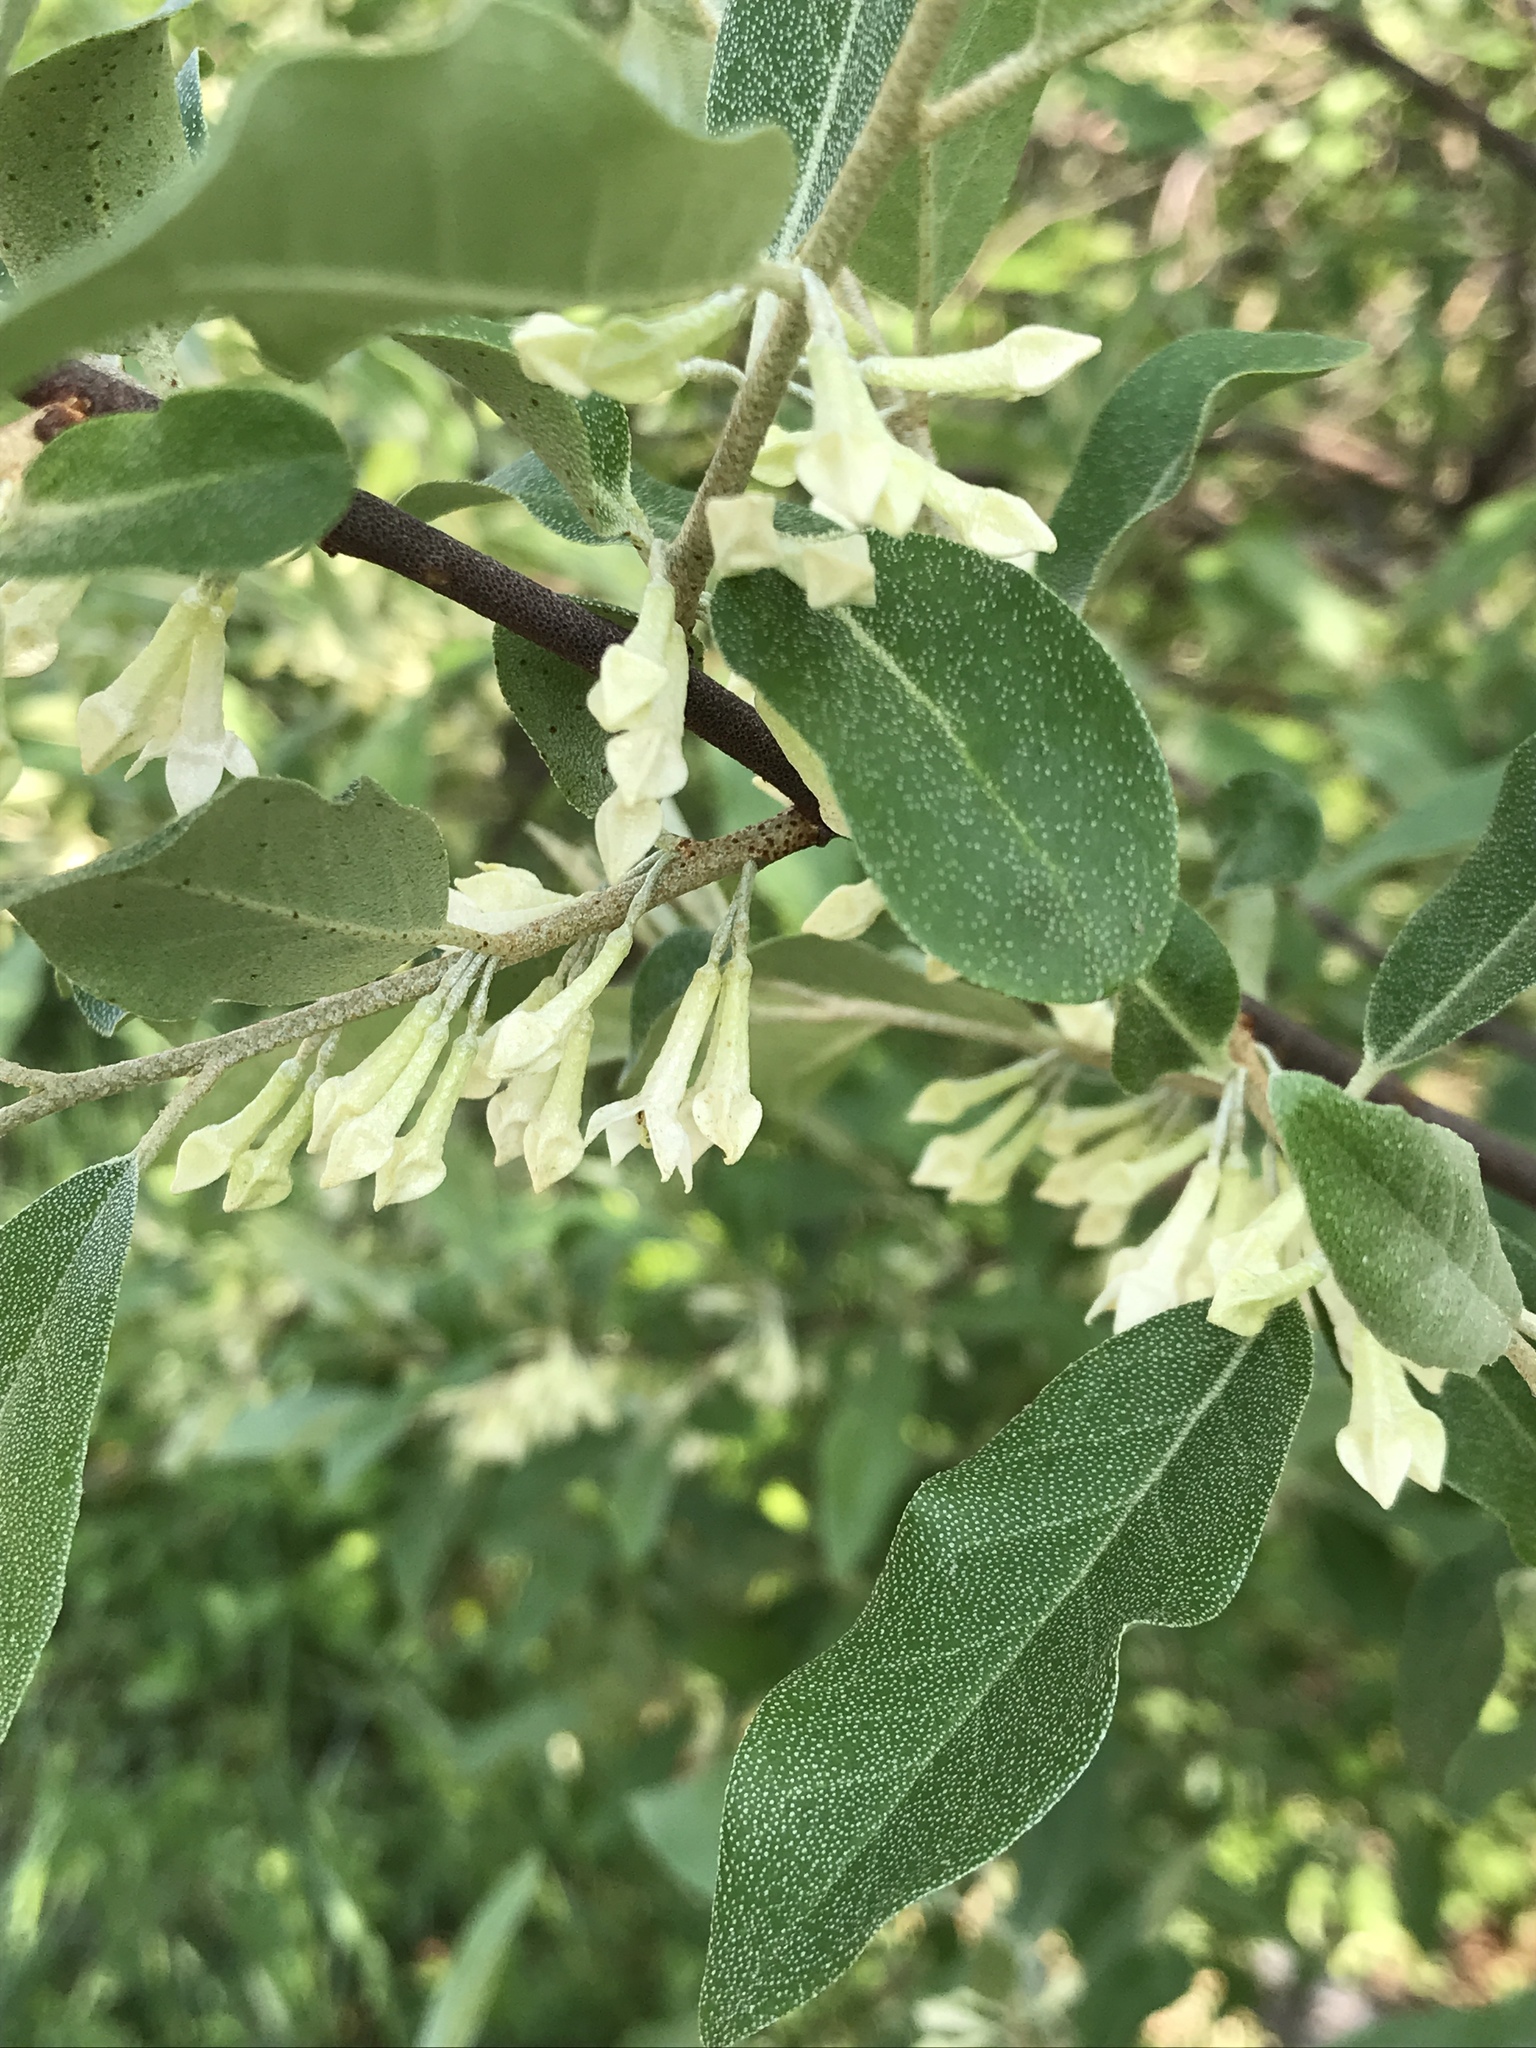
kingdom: Plantae
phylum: Tracheophyta
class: Magnoliopsida
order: Rosales
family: Elaeagnaceae
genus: Elaeagnus
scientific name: Elaeagnus umbellata
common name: Autumn olive
